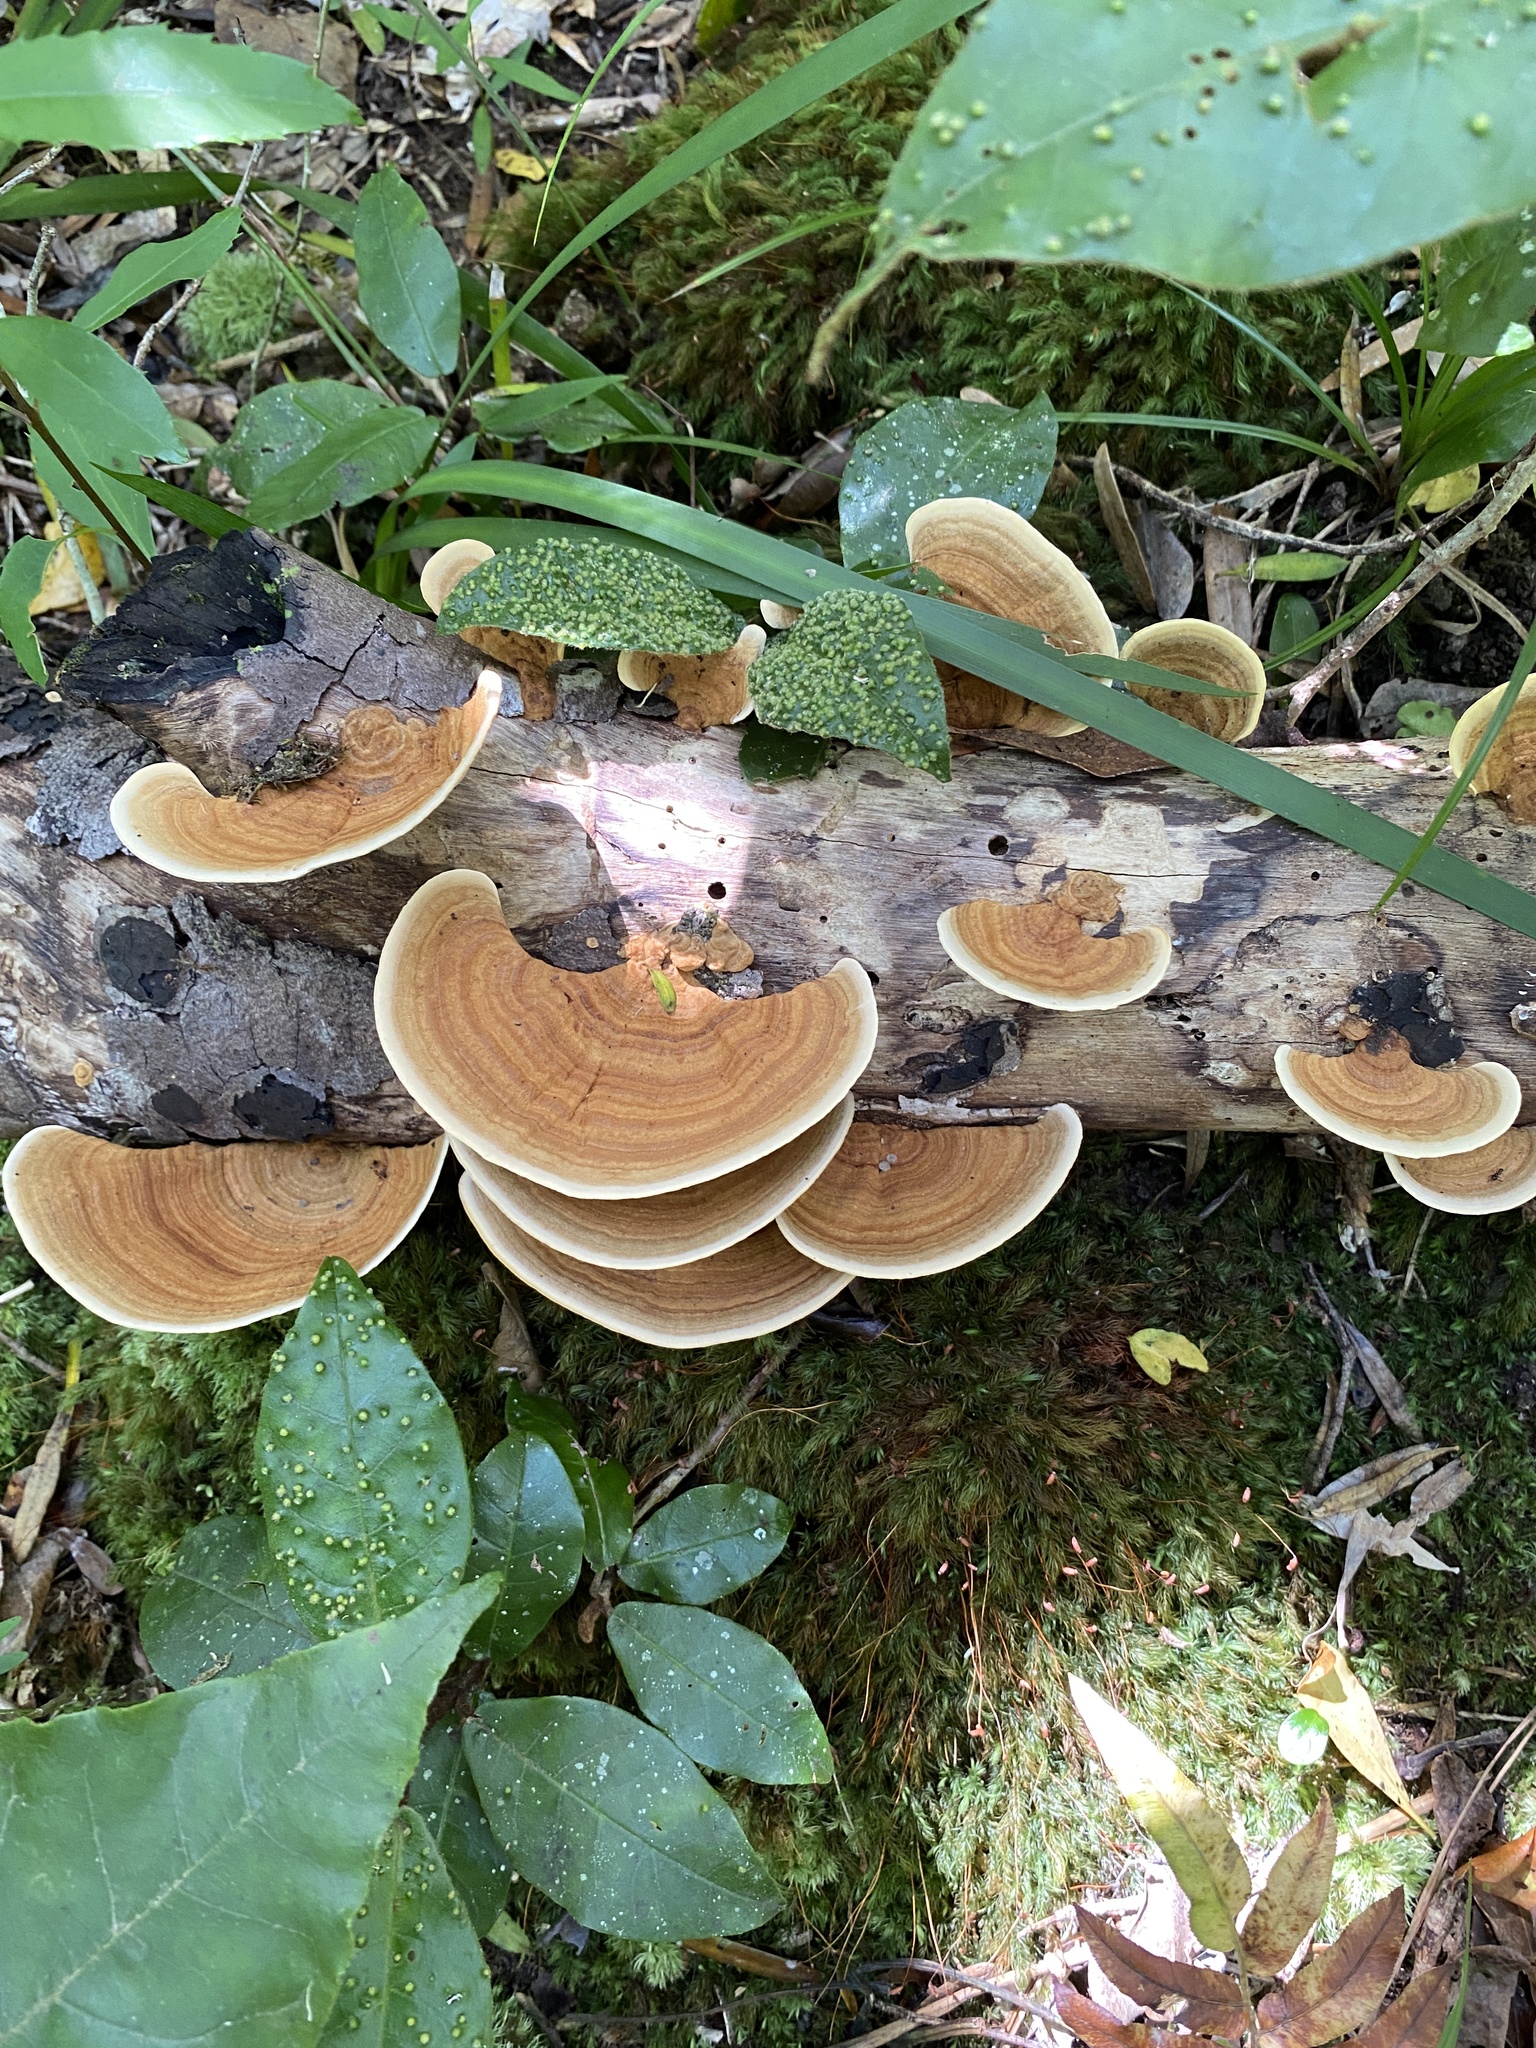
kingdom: Fungi
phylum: Basidiomycota
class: Agaricomycetes
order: Russulales
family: Stereaceae
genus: Stereum
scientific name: Stereum versicolor
